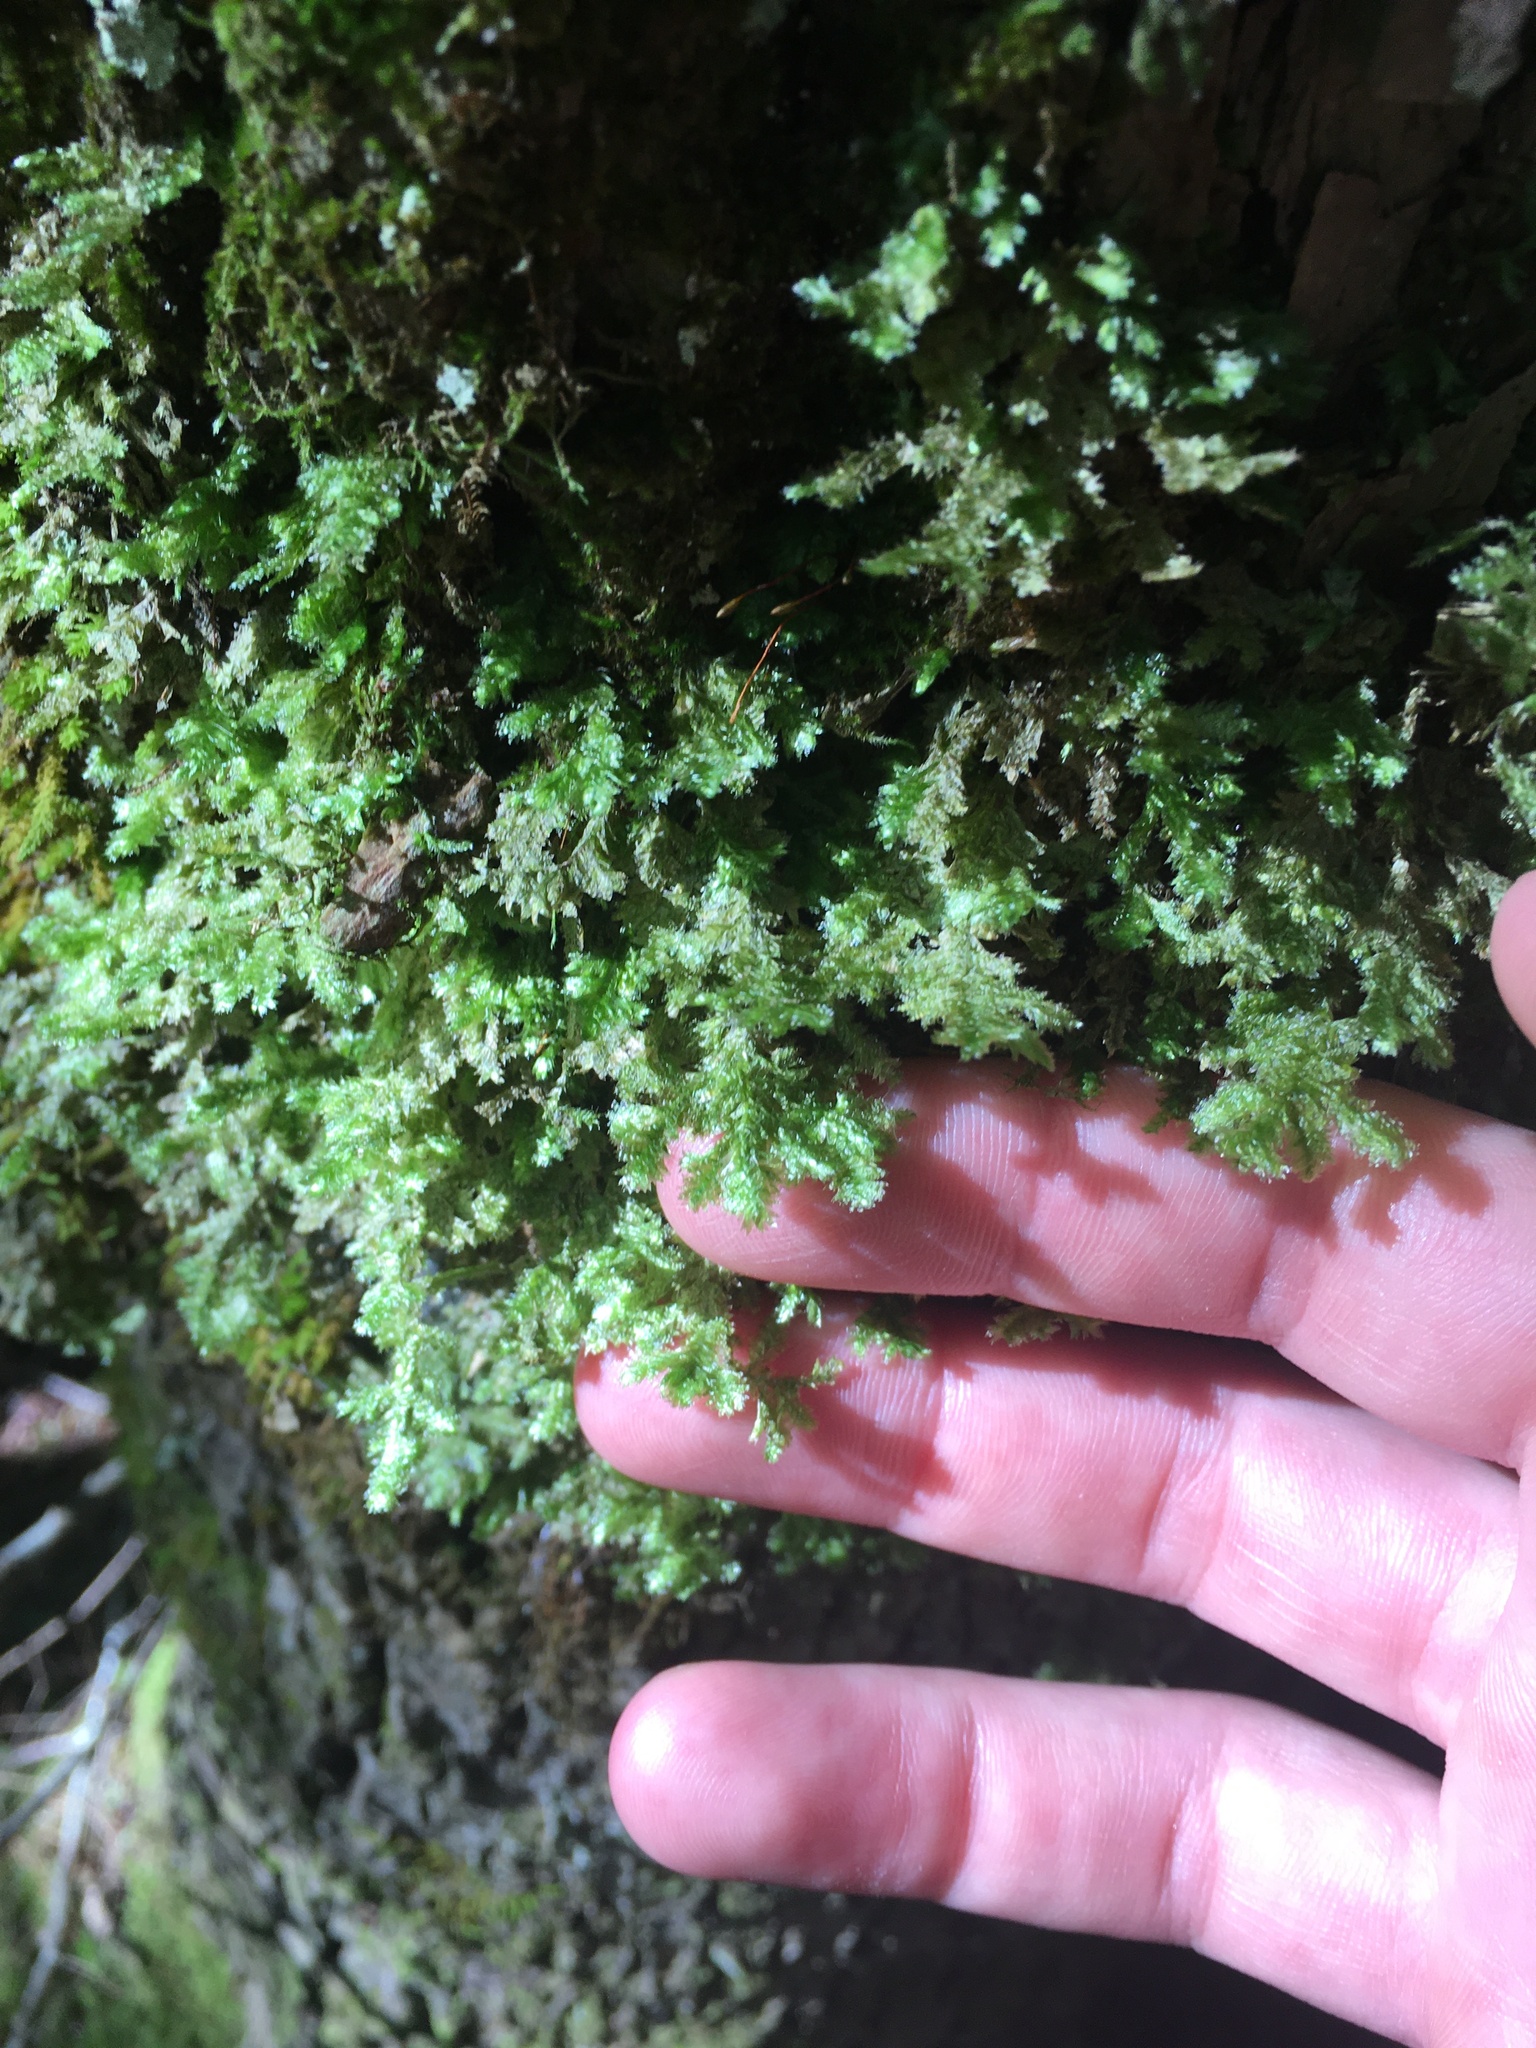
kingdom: Plantae
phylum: Bryophyta
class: Bryopsida
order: Hypnales
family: Neckeraceae
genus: Neckera
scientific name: Neckera pennata
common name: Feathery neckera
